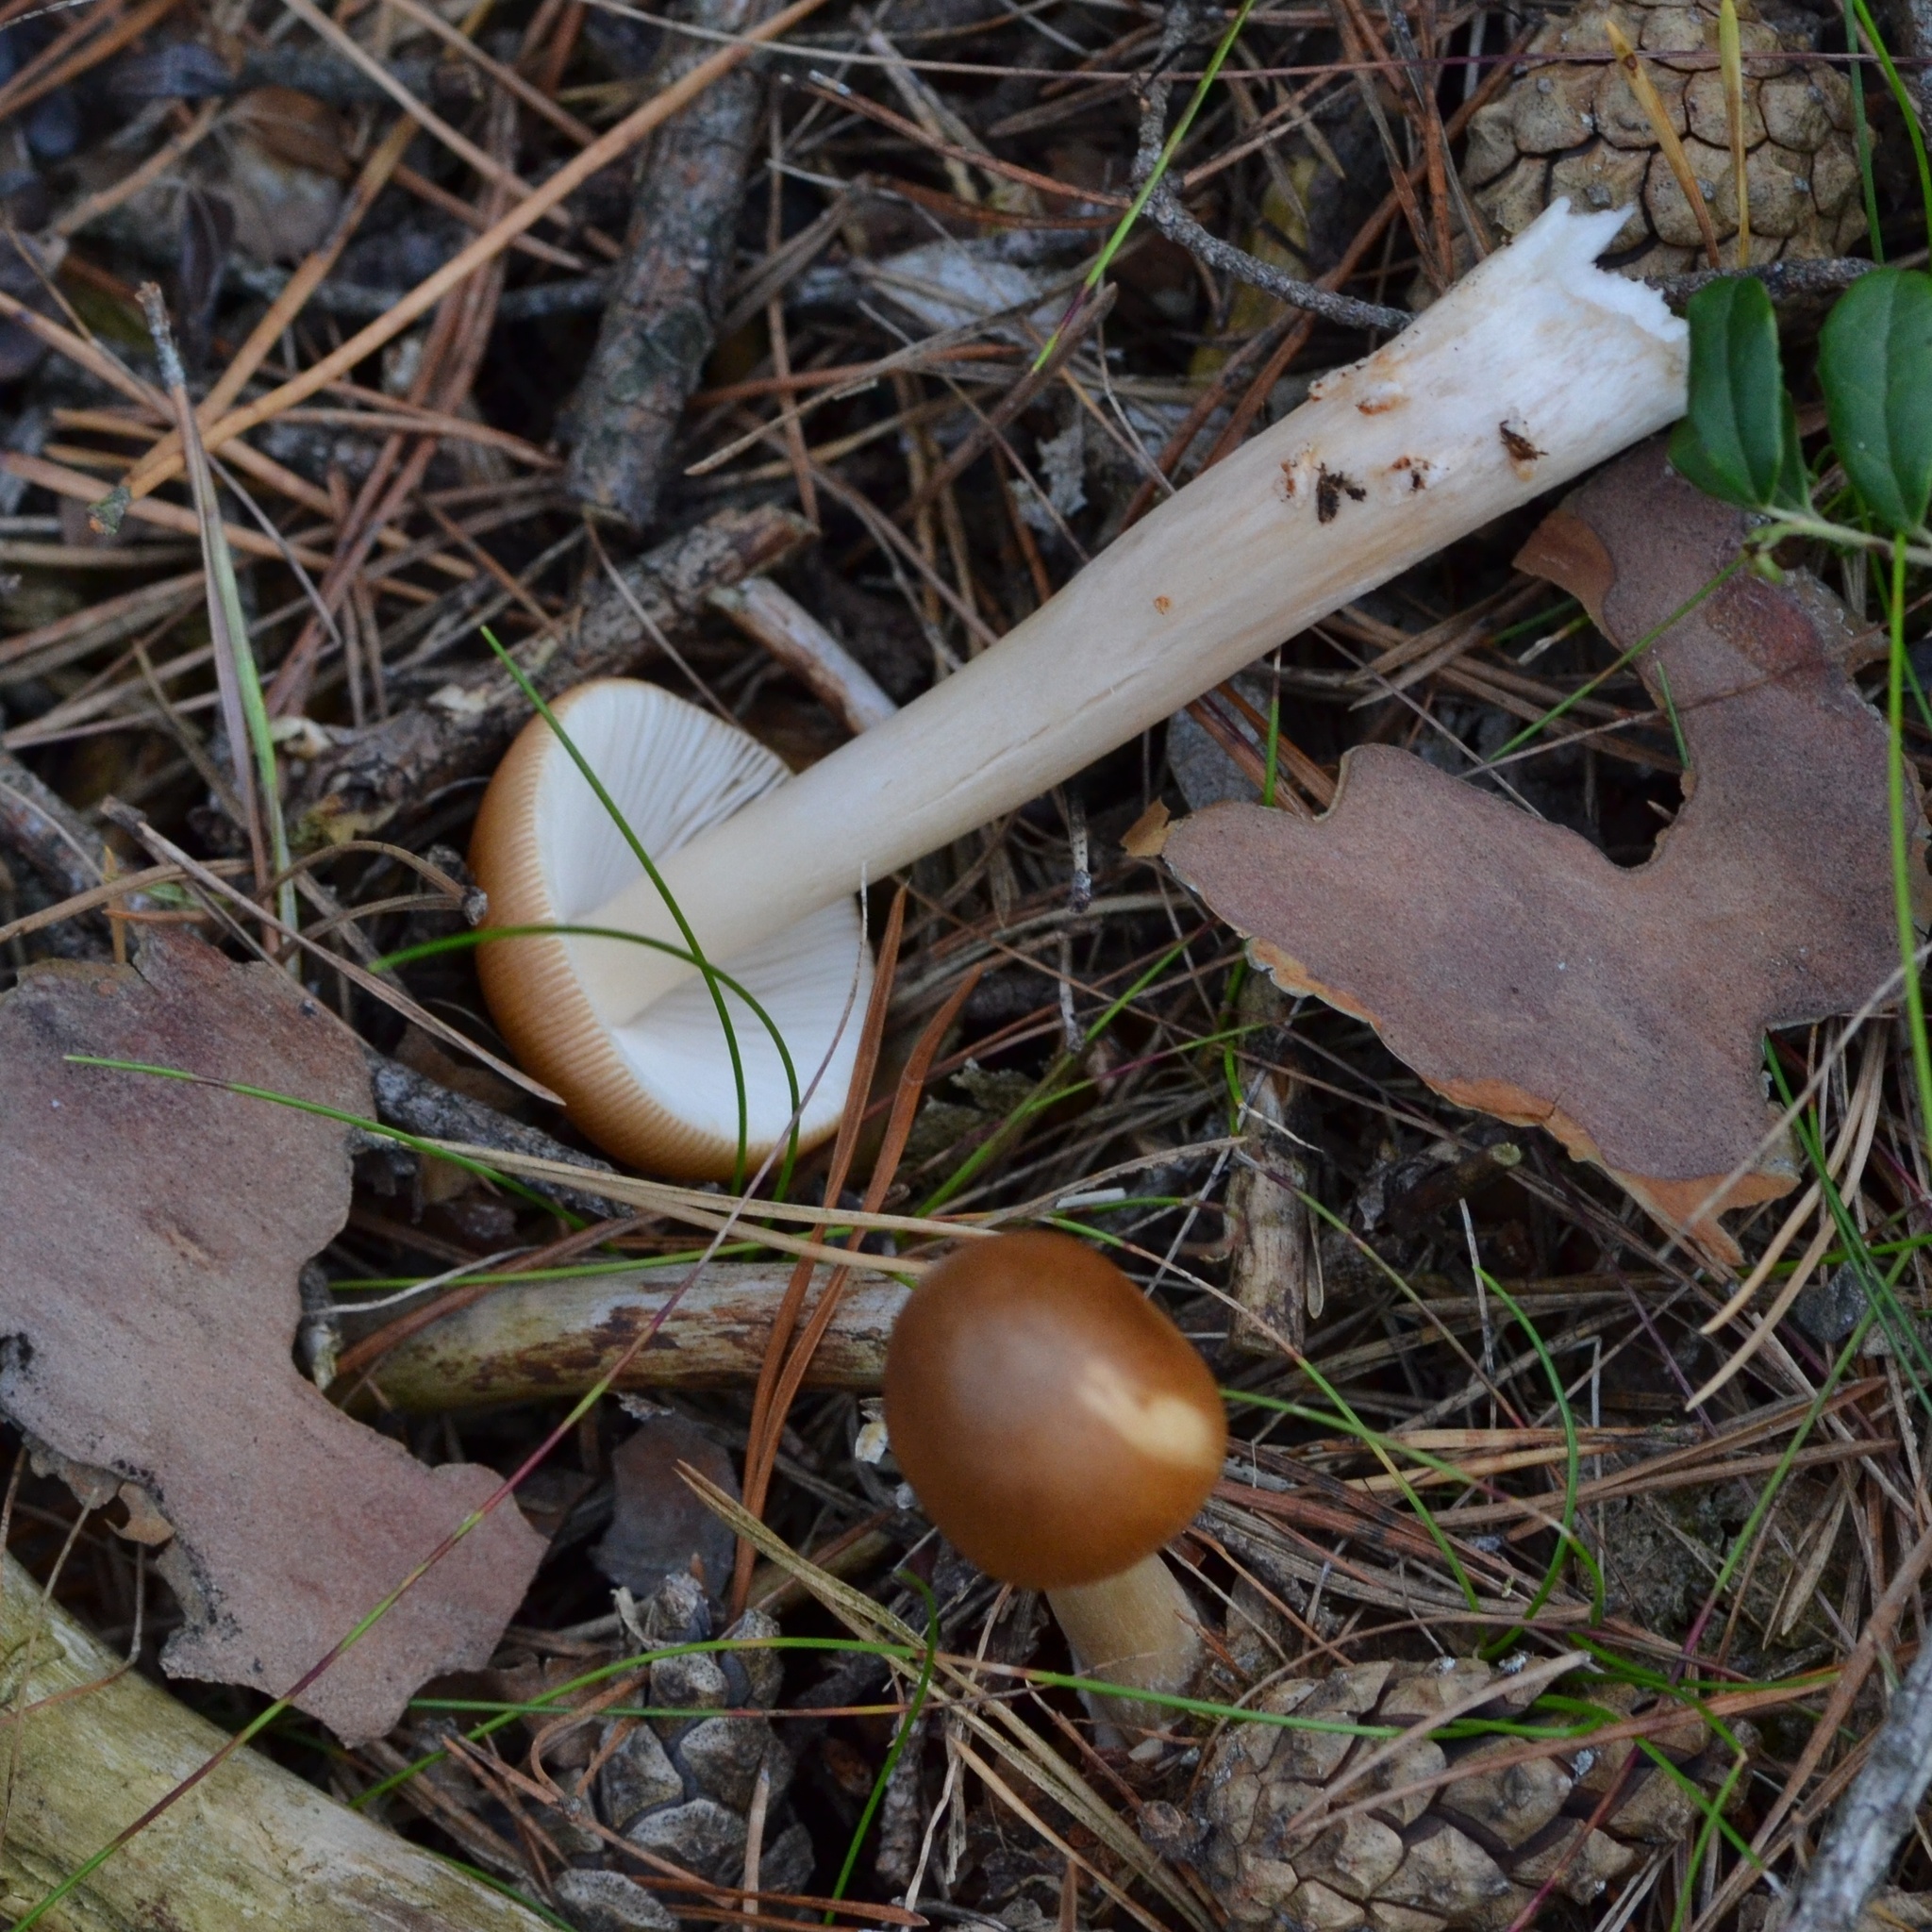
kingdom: Fungi
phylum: Basidiomycota
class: Agaricomycetes
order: Agaricales
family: Amanitaceae
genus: Amanita
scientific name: Amanita fulva
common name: Tawny grisette
